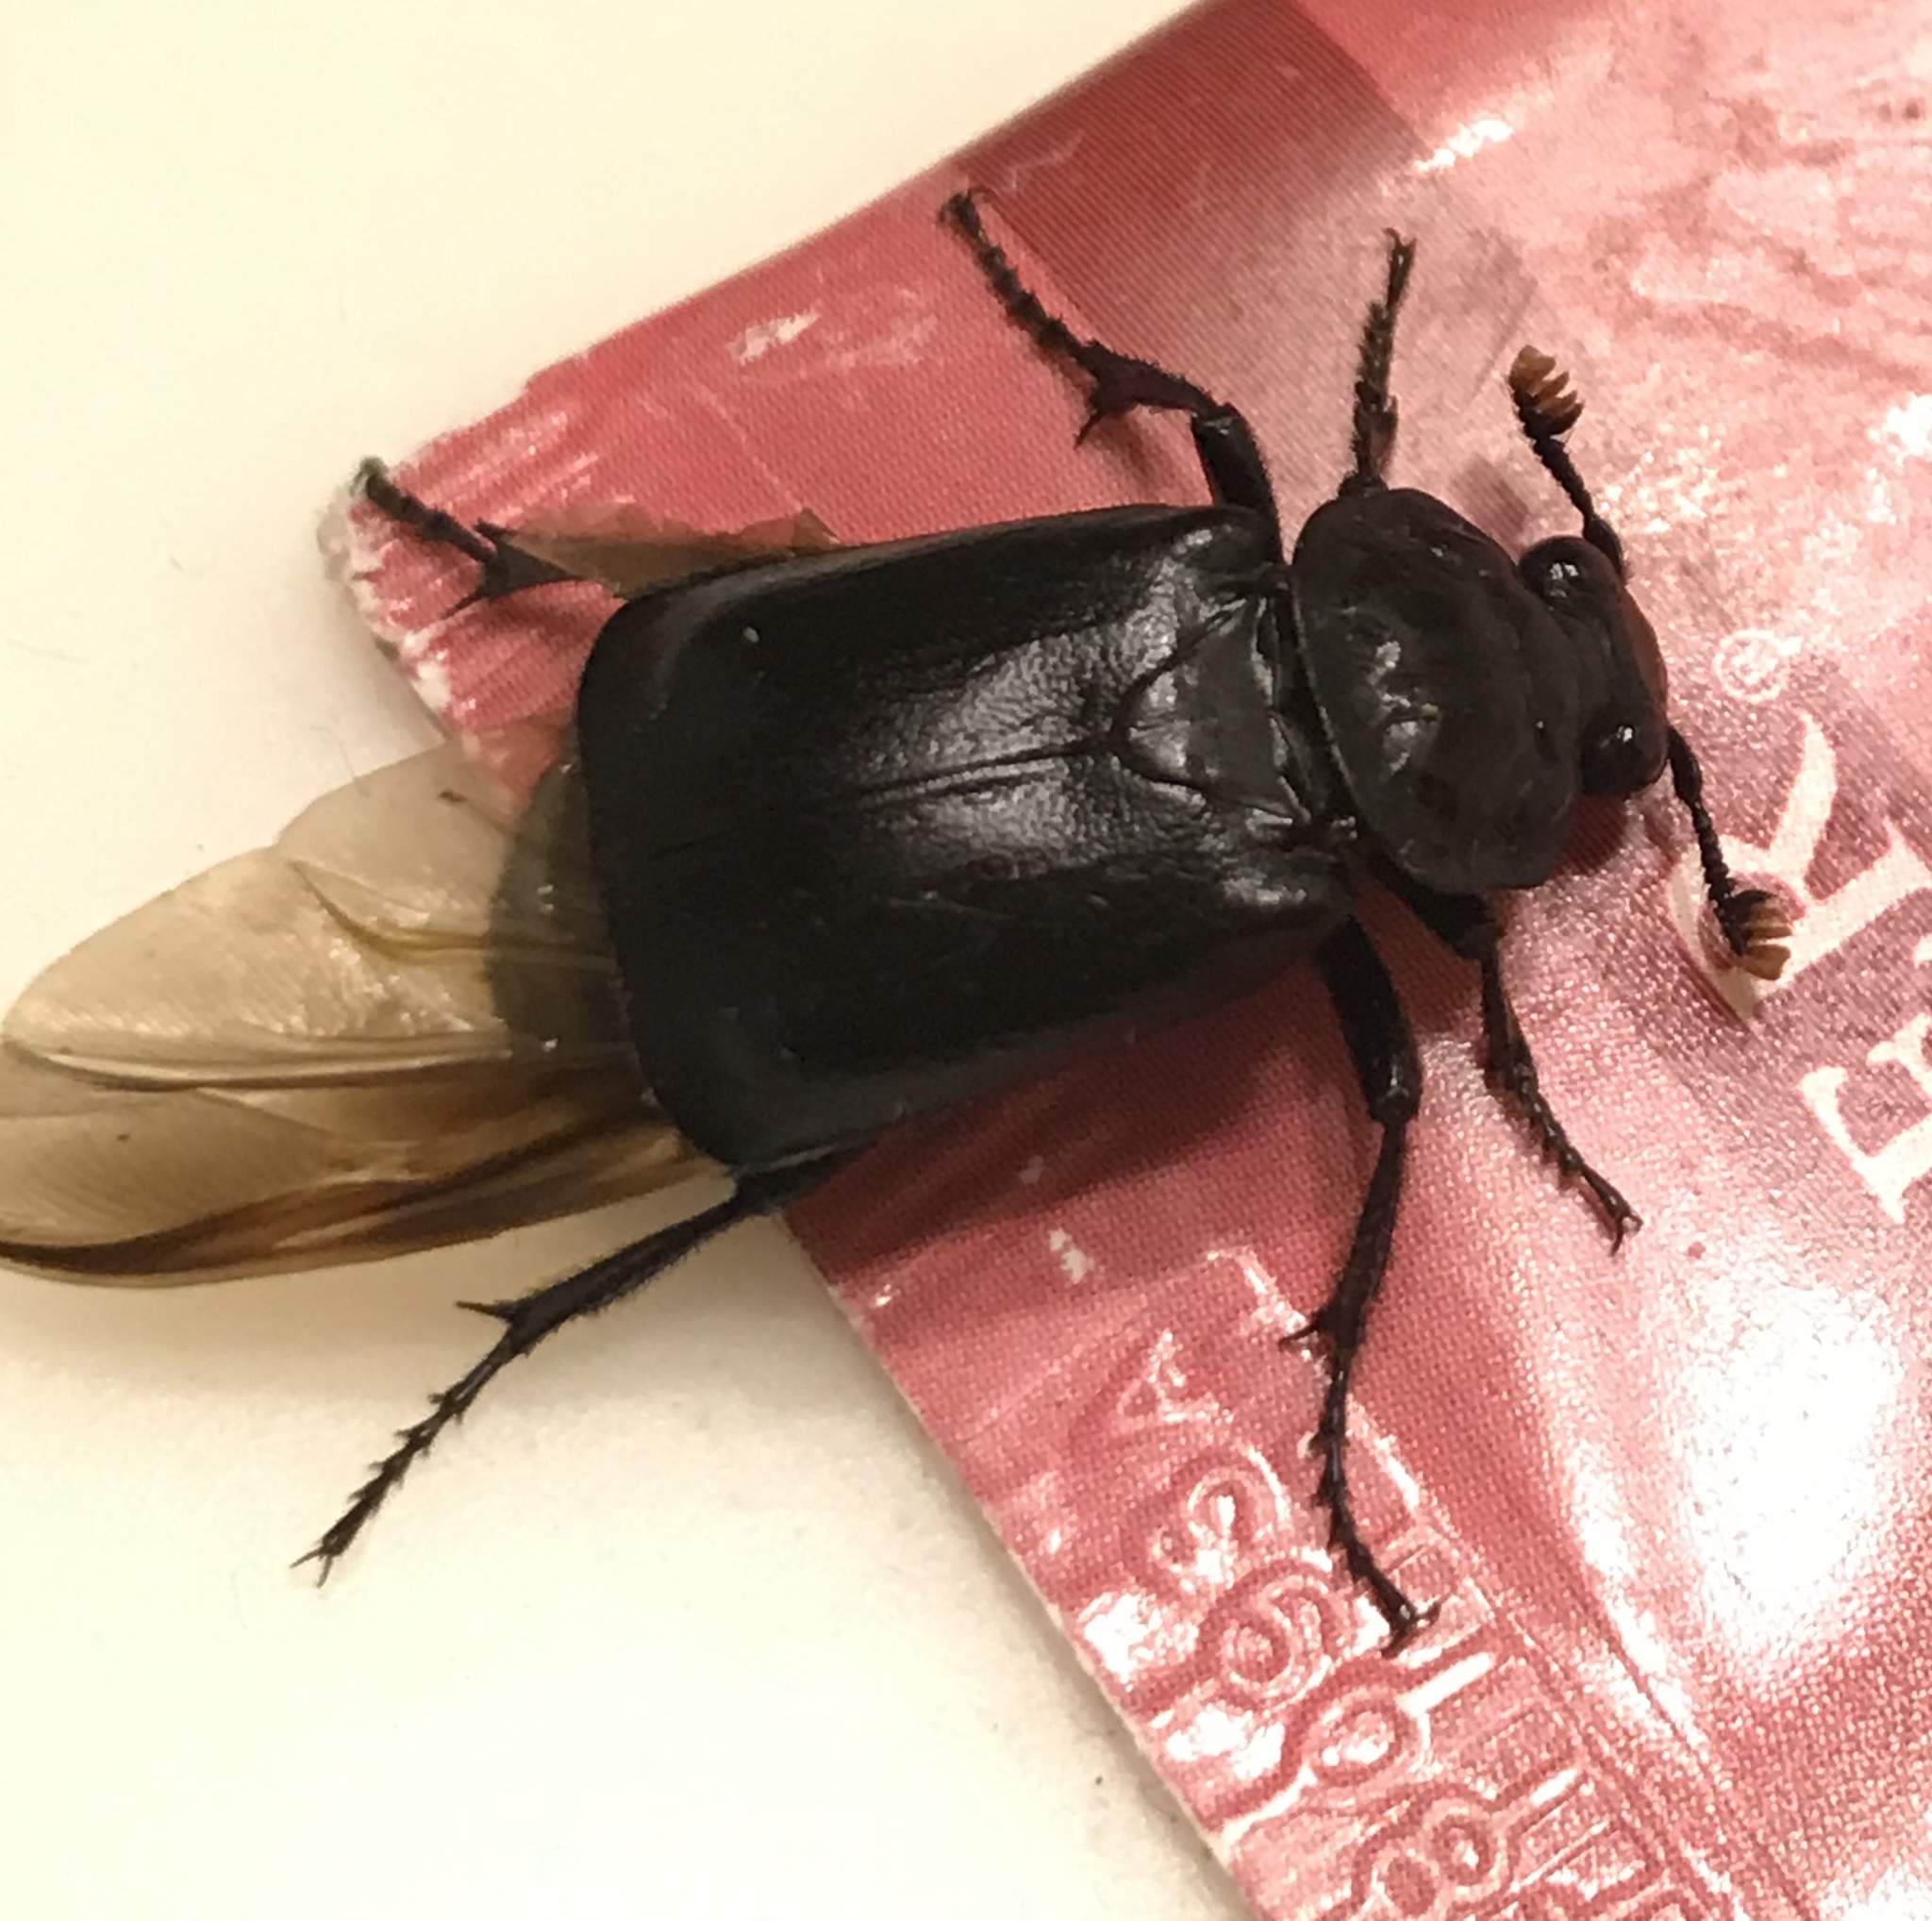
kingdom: Animalia
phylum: Arthropoda
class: Insecta
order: Coleoptera
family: Staphylinidae
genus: Nicrophorus
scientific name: Nicrophorus nigrita
